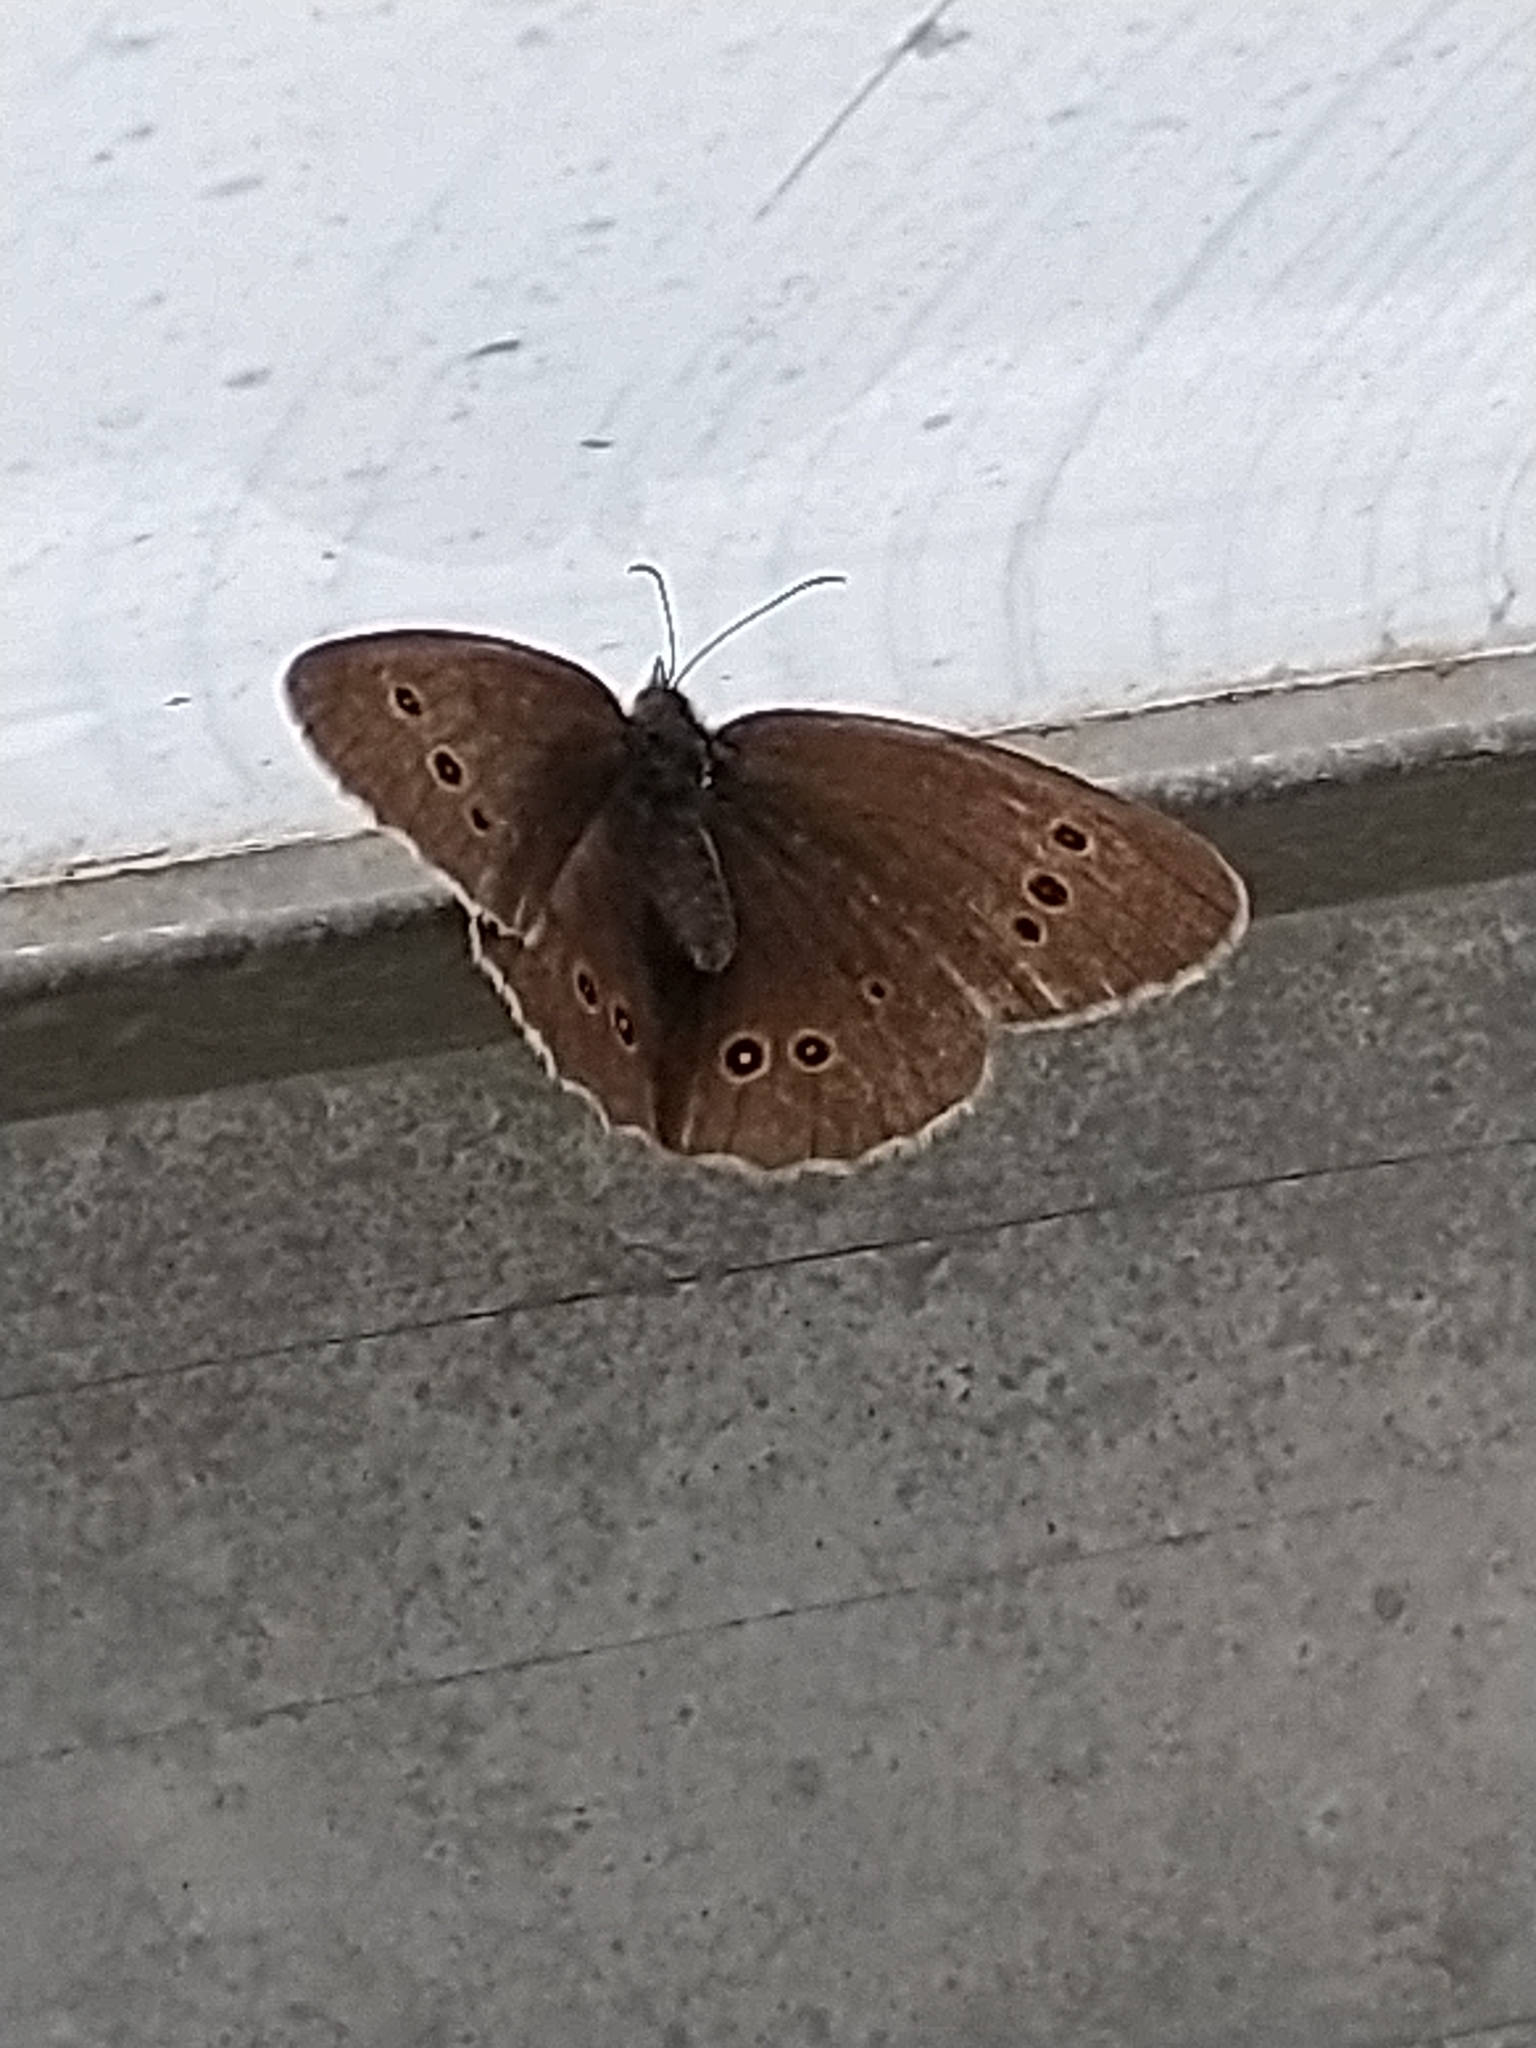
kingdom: Animalia
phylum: Arthropoda
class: Insecta
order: Lepidoptera
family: Nymphalidae
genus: Aphantopus
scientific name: Aphantopus hyperantus
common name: Ringlet
